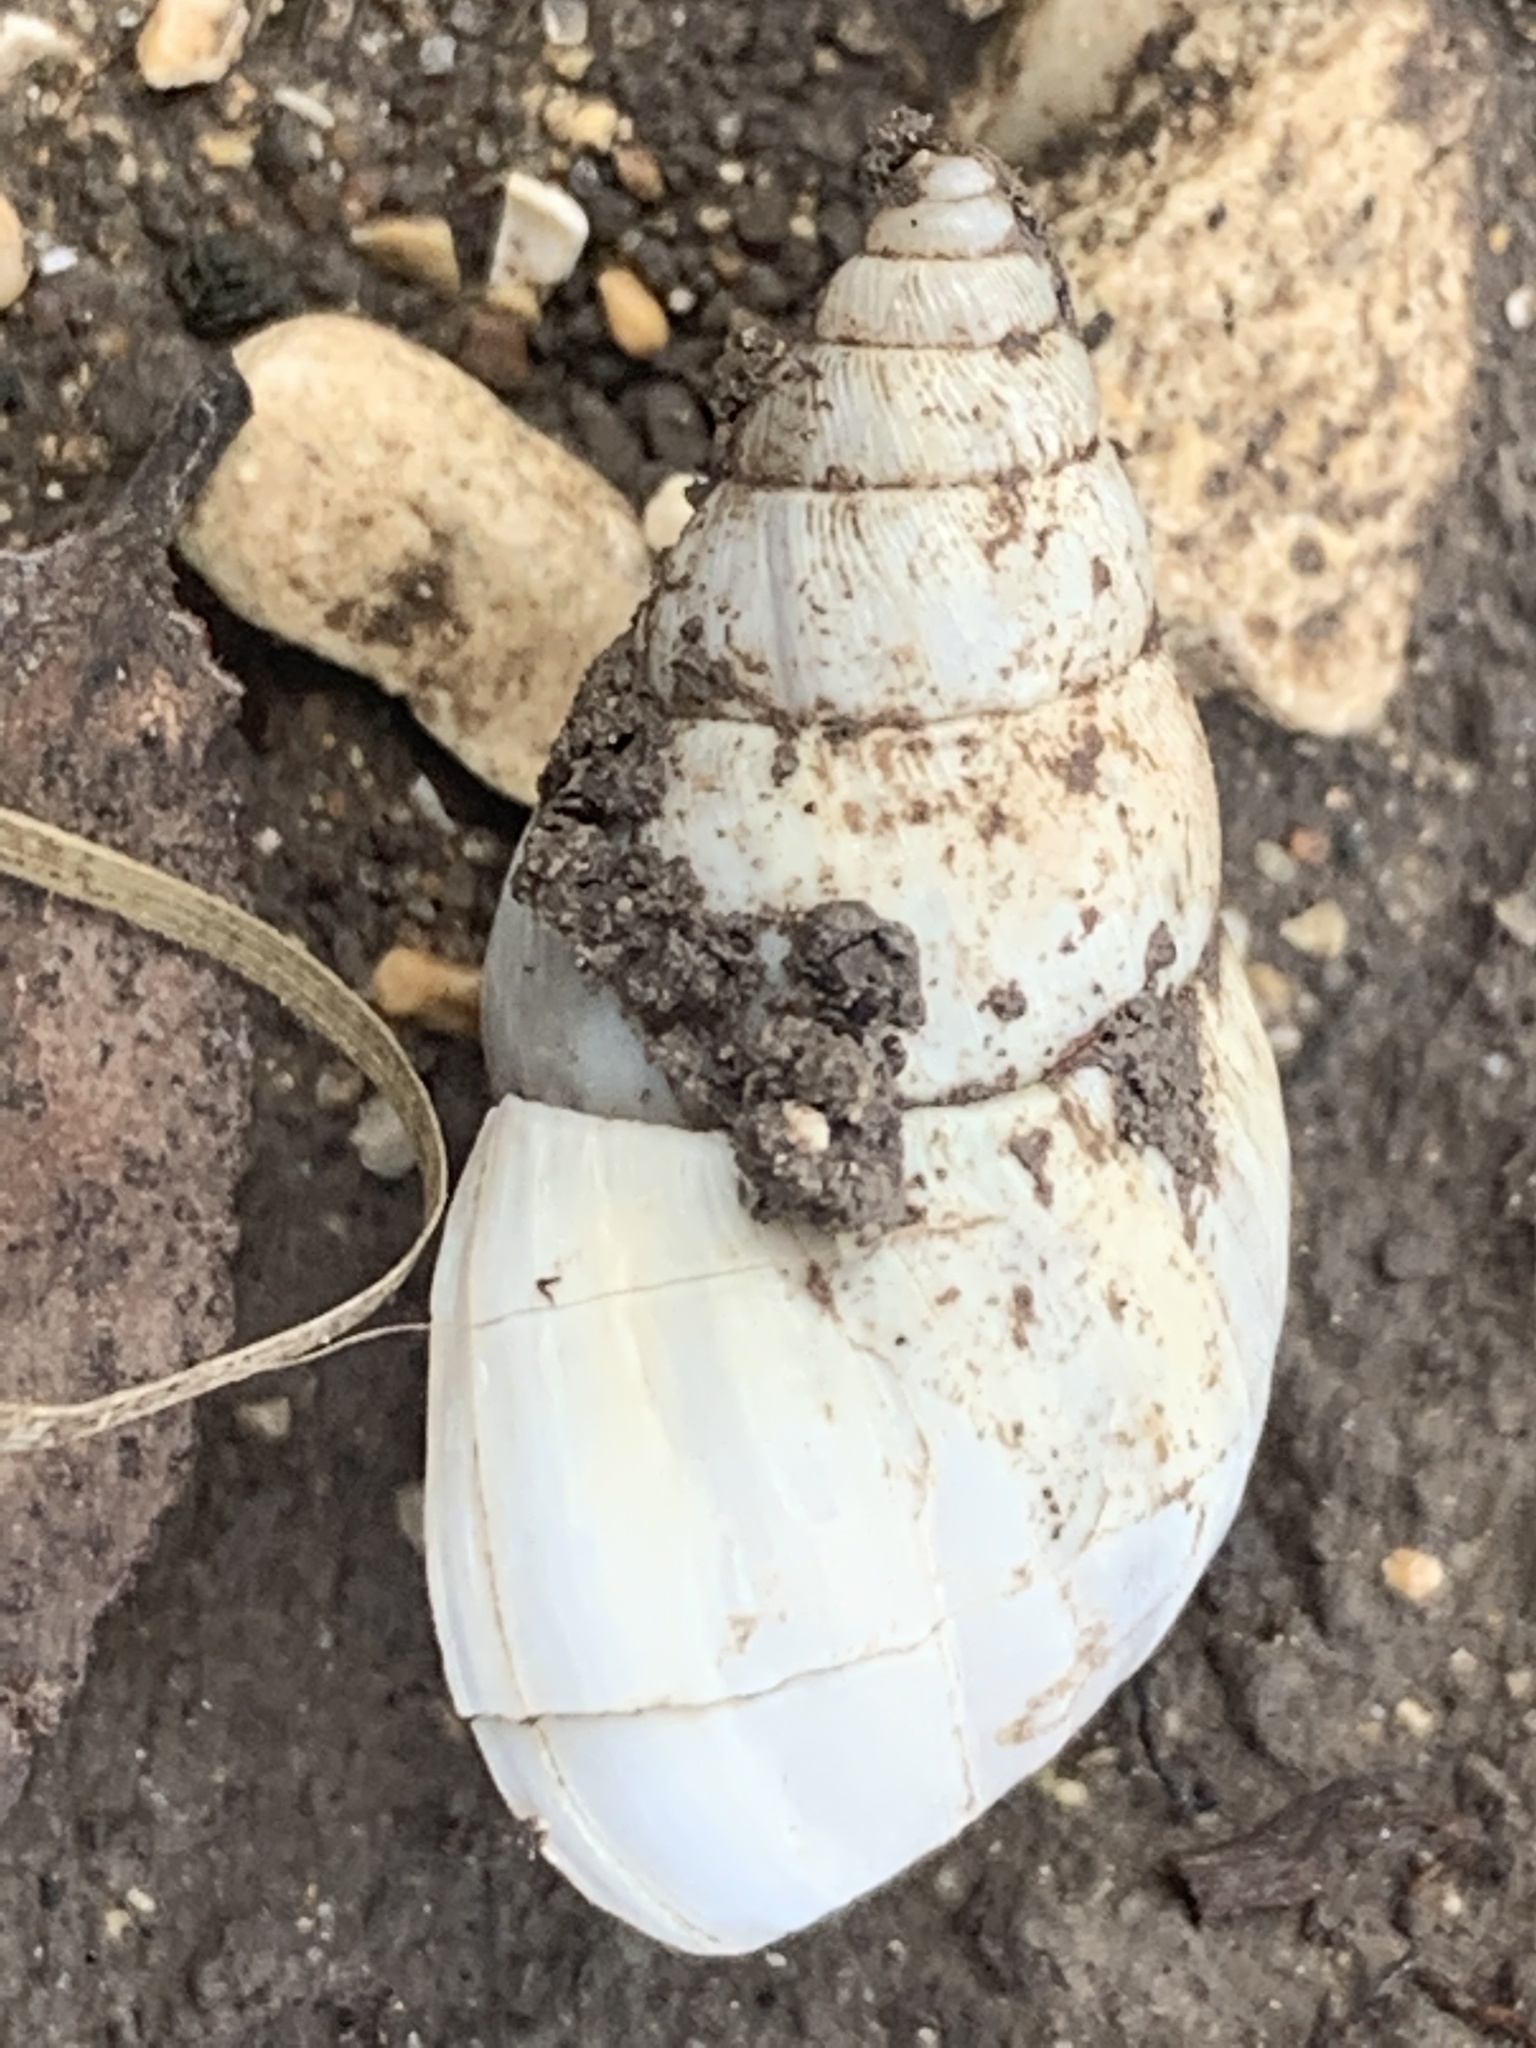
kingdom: Animalia
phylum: Mollusca
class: Gastropoda
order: Stylommatophora
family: Bulimulidae
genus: Rabdotus
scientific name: Rabdotus mooreanus
